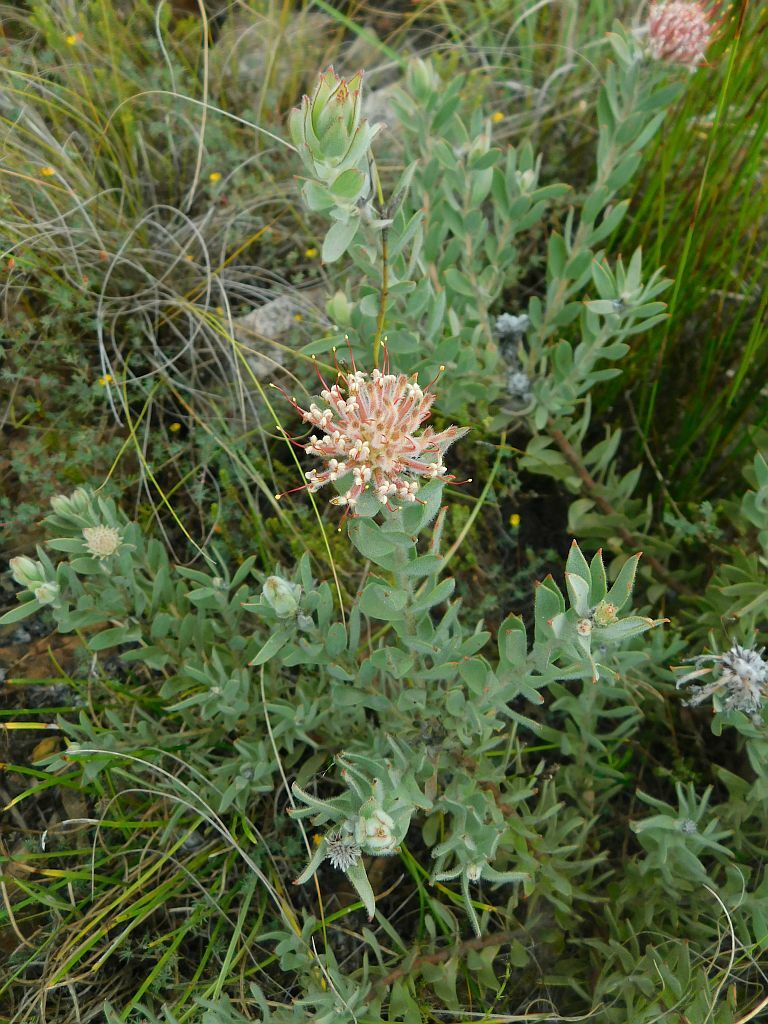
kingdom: Plantae
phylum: Tracheophyta
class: Magnoliopsida
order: Proteales
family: Proteaceae
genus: Leucospermum
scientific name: Leucospermum calligerum
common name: Arid pincushion
